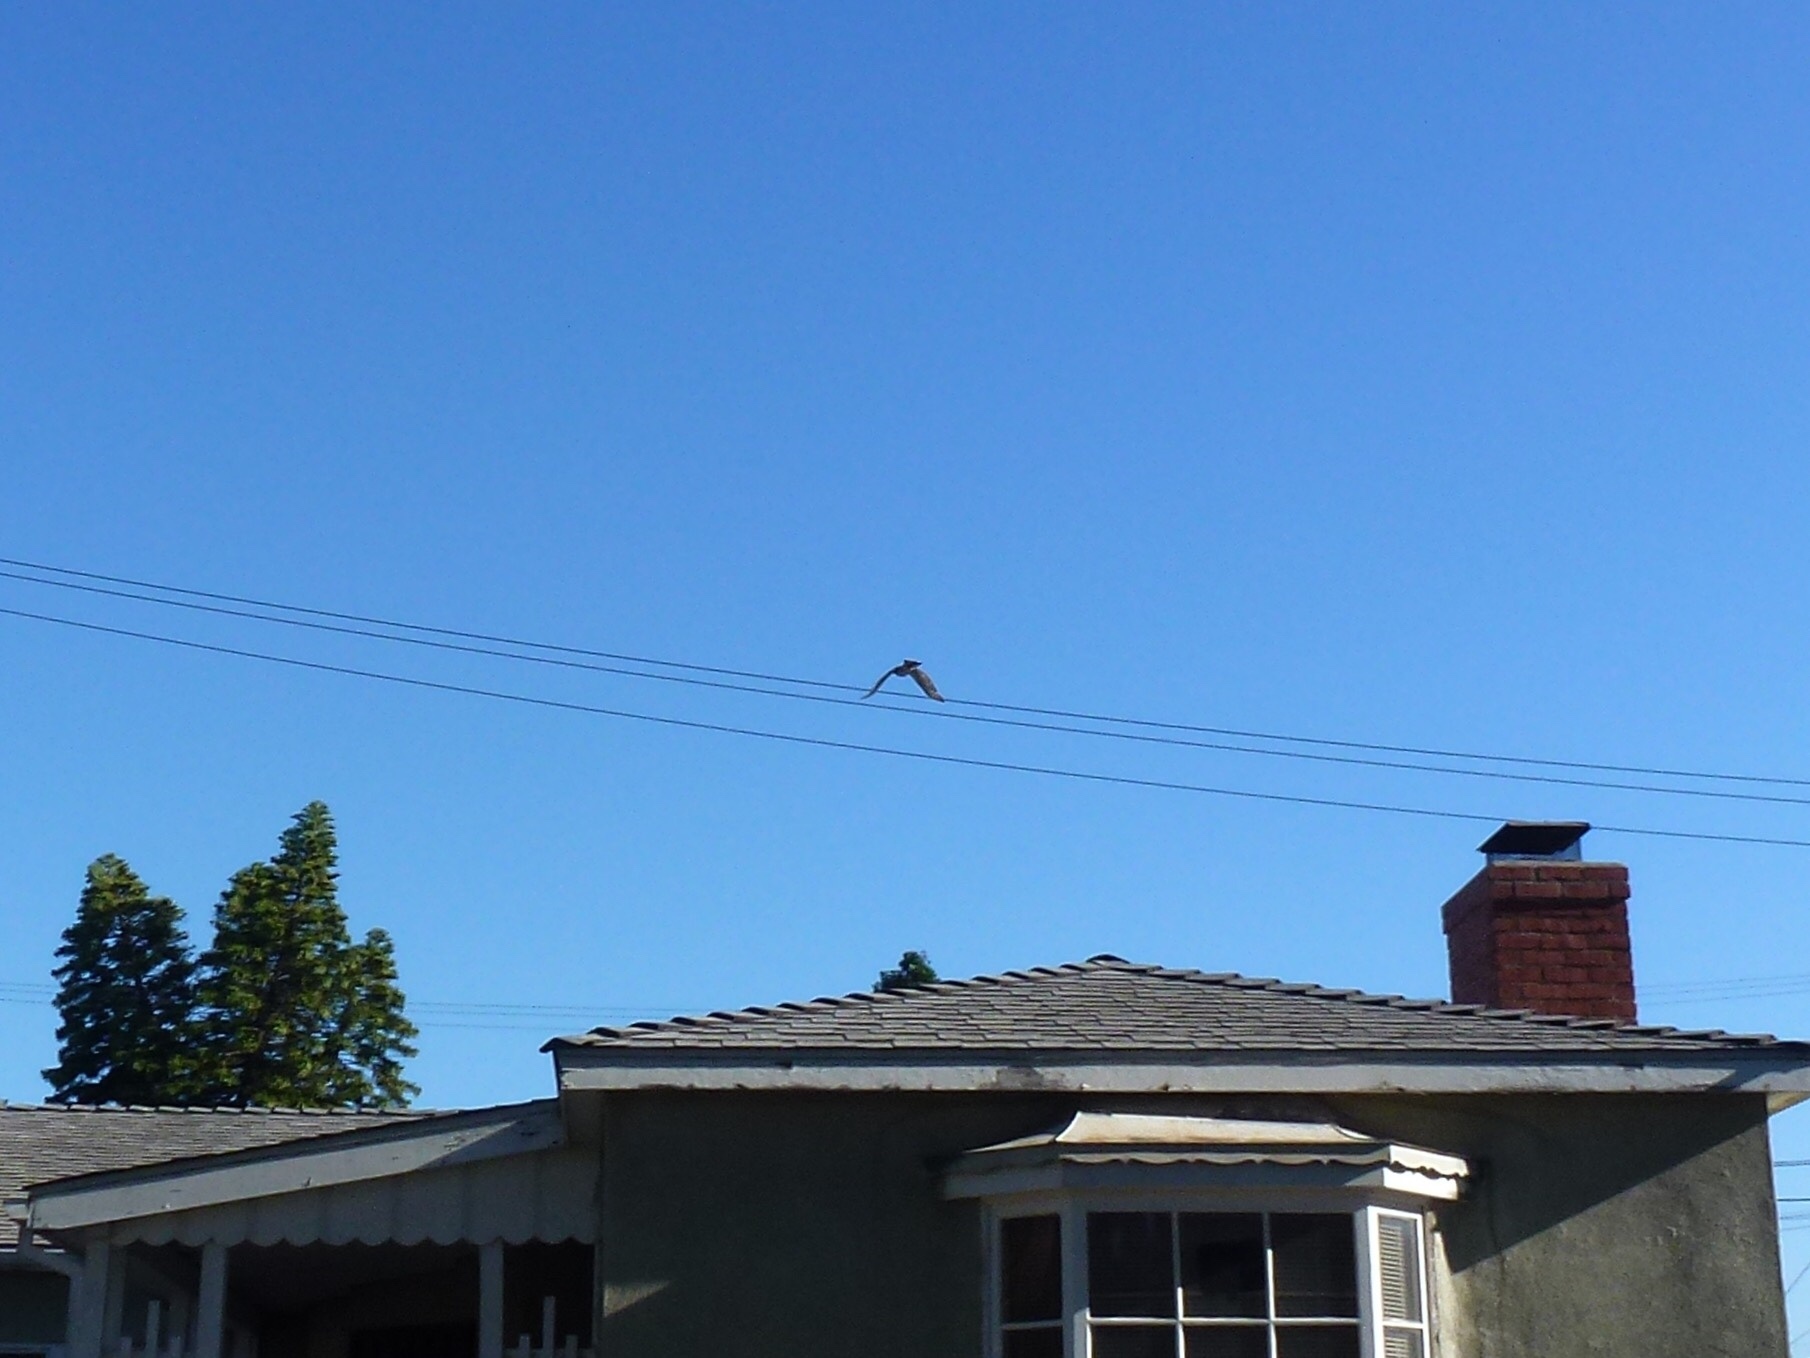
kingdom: Animalia
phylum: Chordata
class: Aves
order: Accipitriformes
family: Accipitridae
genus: Accipiter
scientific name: Accipiter cooperii
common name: Cooper's hawk
